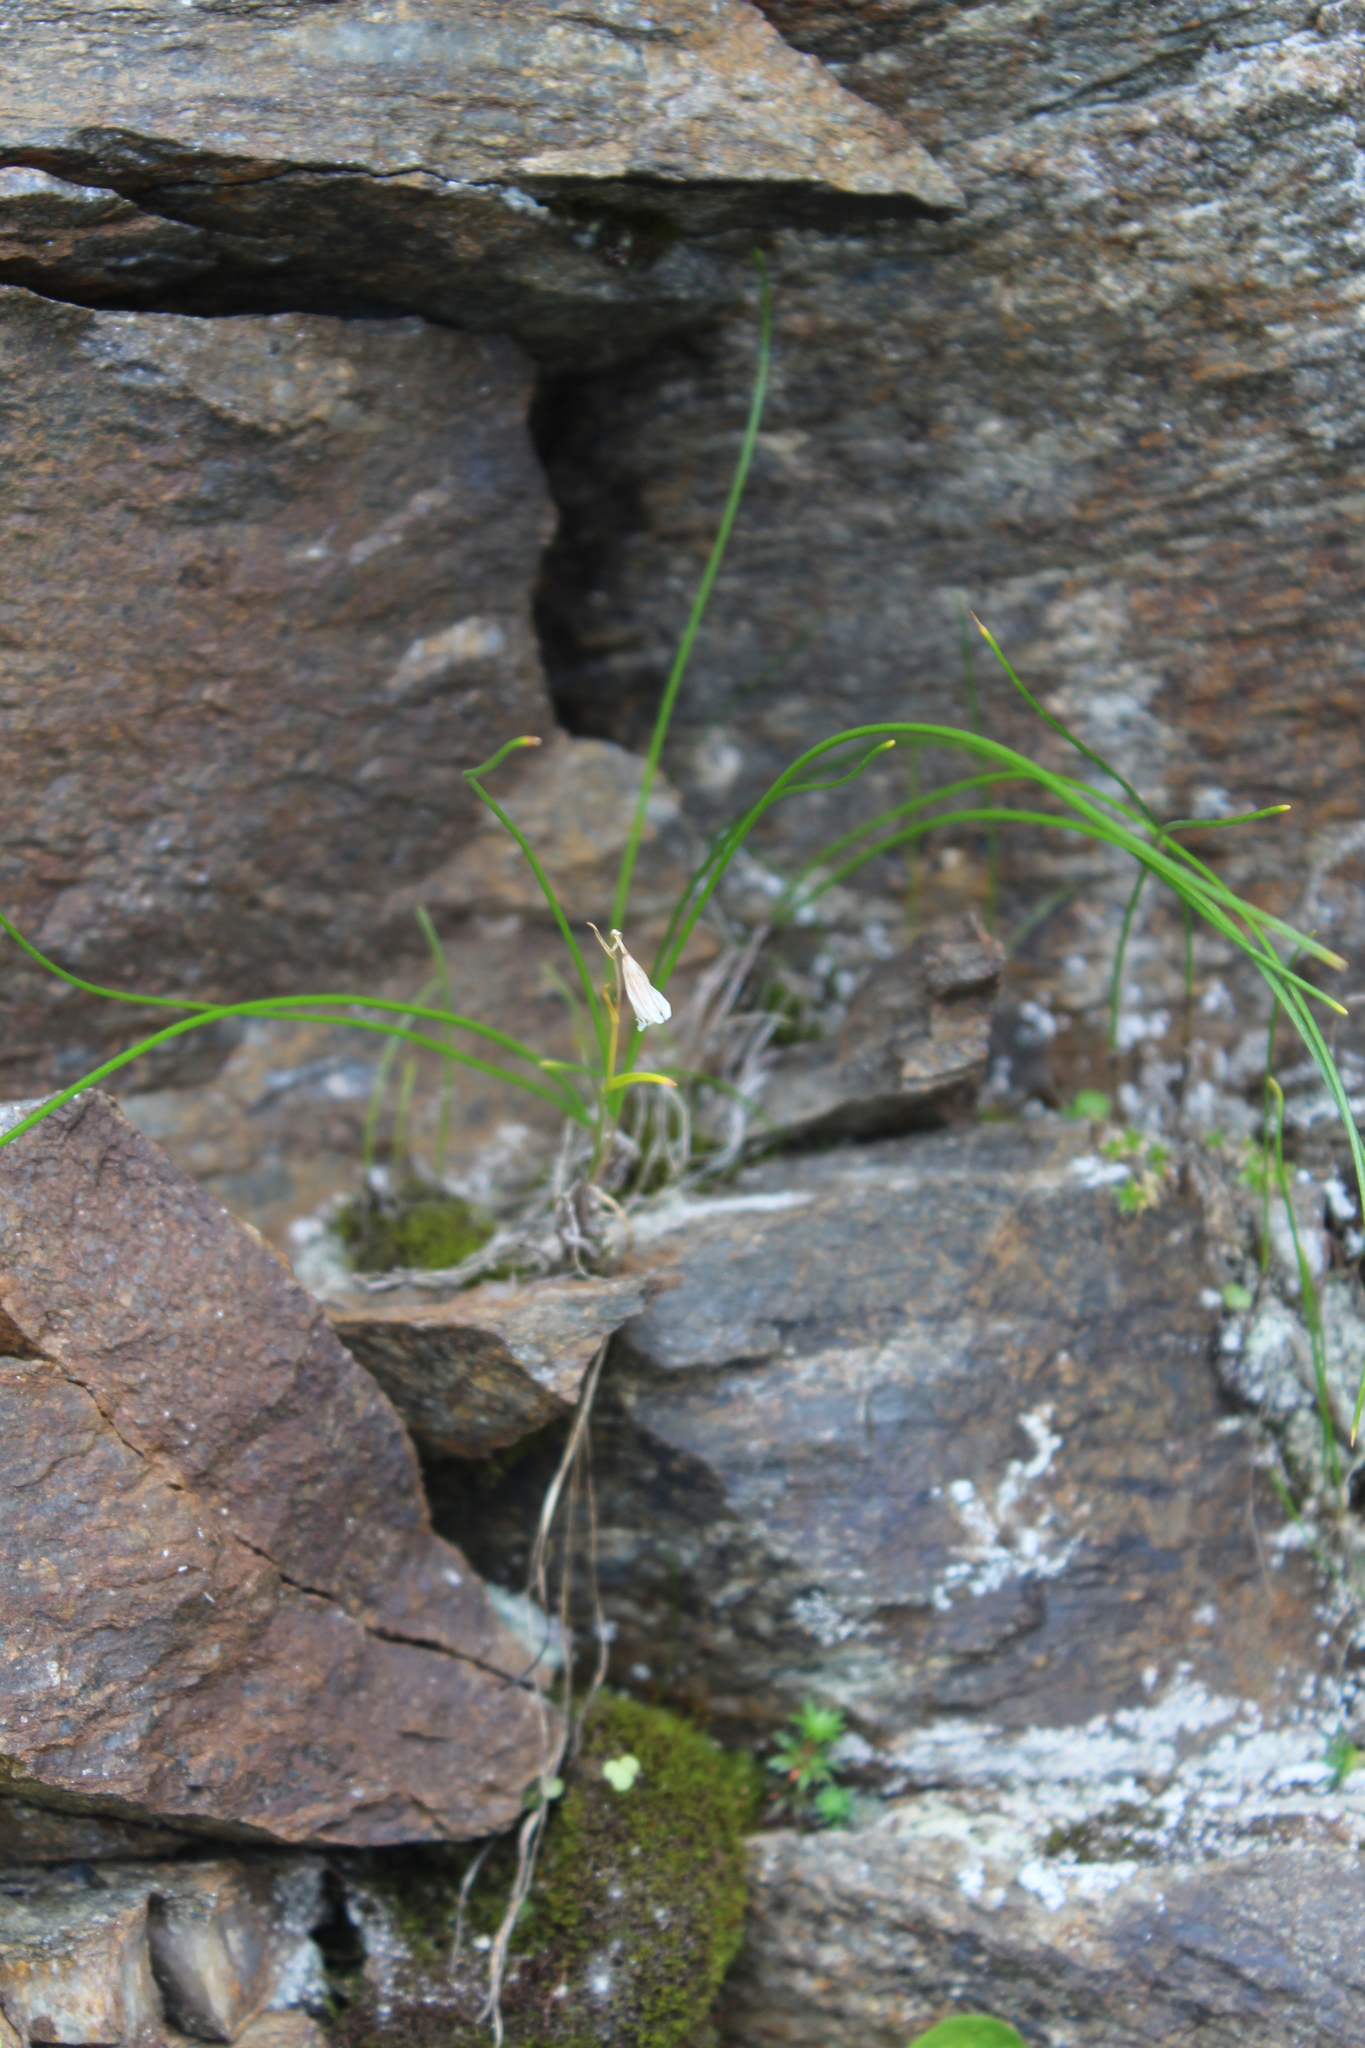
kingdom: Plantae
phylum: Tracheophyta
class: Liliopsida
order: Liliales
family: Liliaceae
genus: Gagea
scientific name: Gagea serotina
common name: Snowdon lily
